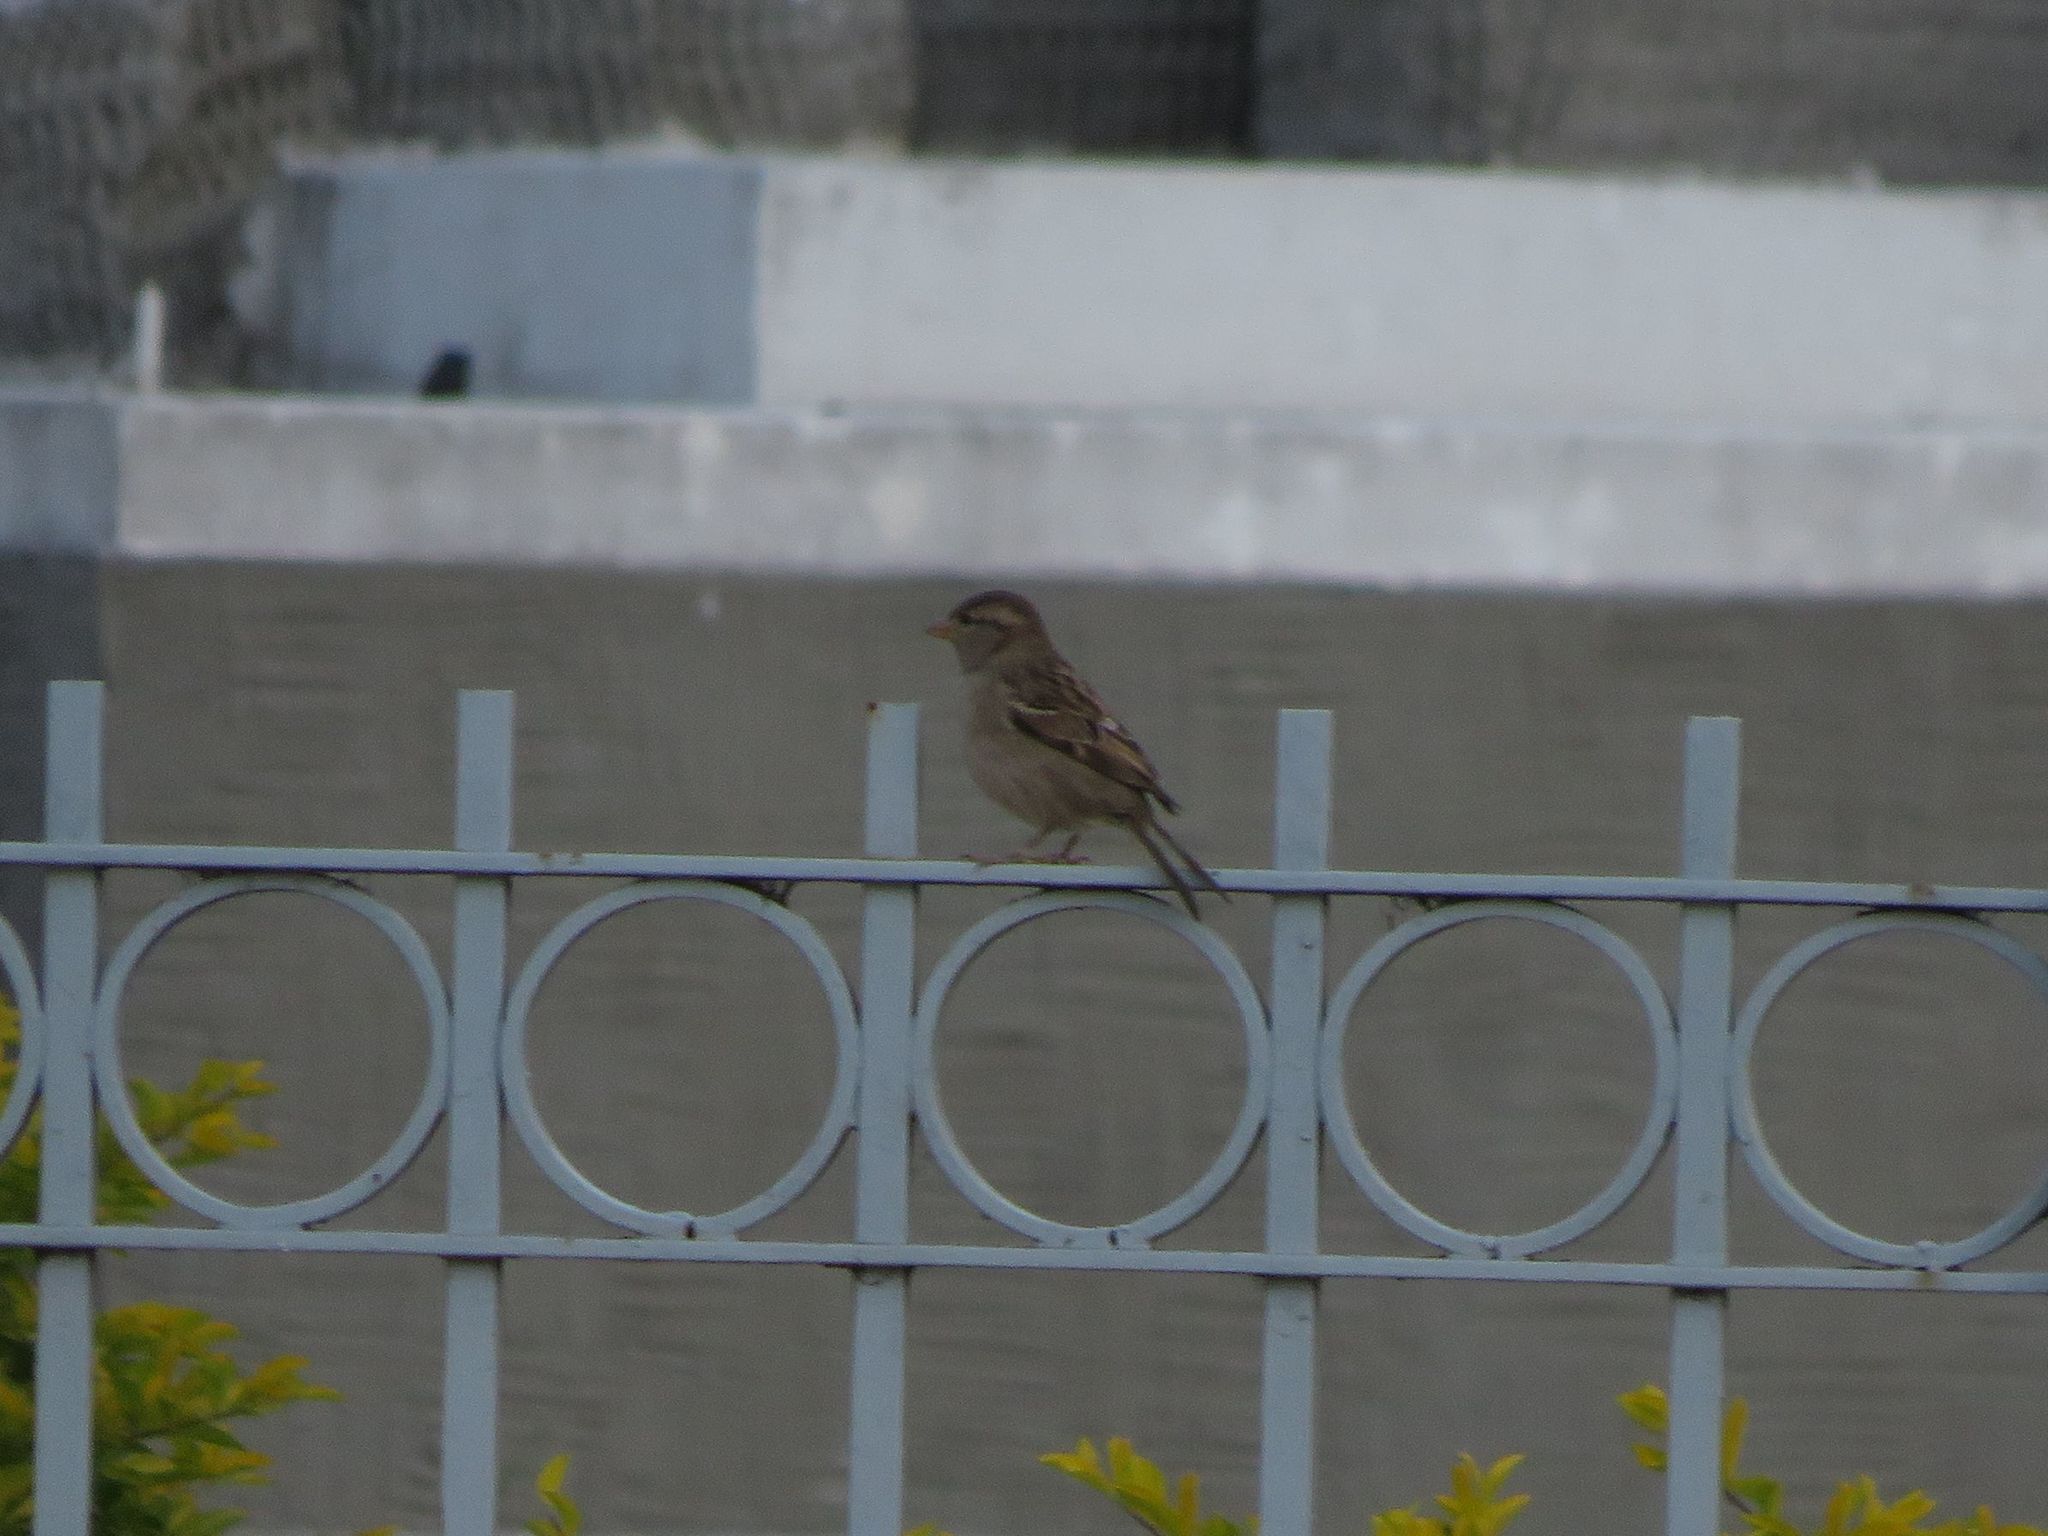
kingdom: Animalia
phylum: Chordata
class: Aves
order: Passeriformes
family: Passeridae
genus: Passer
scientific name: Passer domesticus
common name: House sparrow
